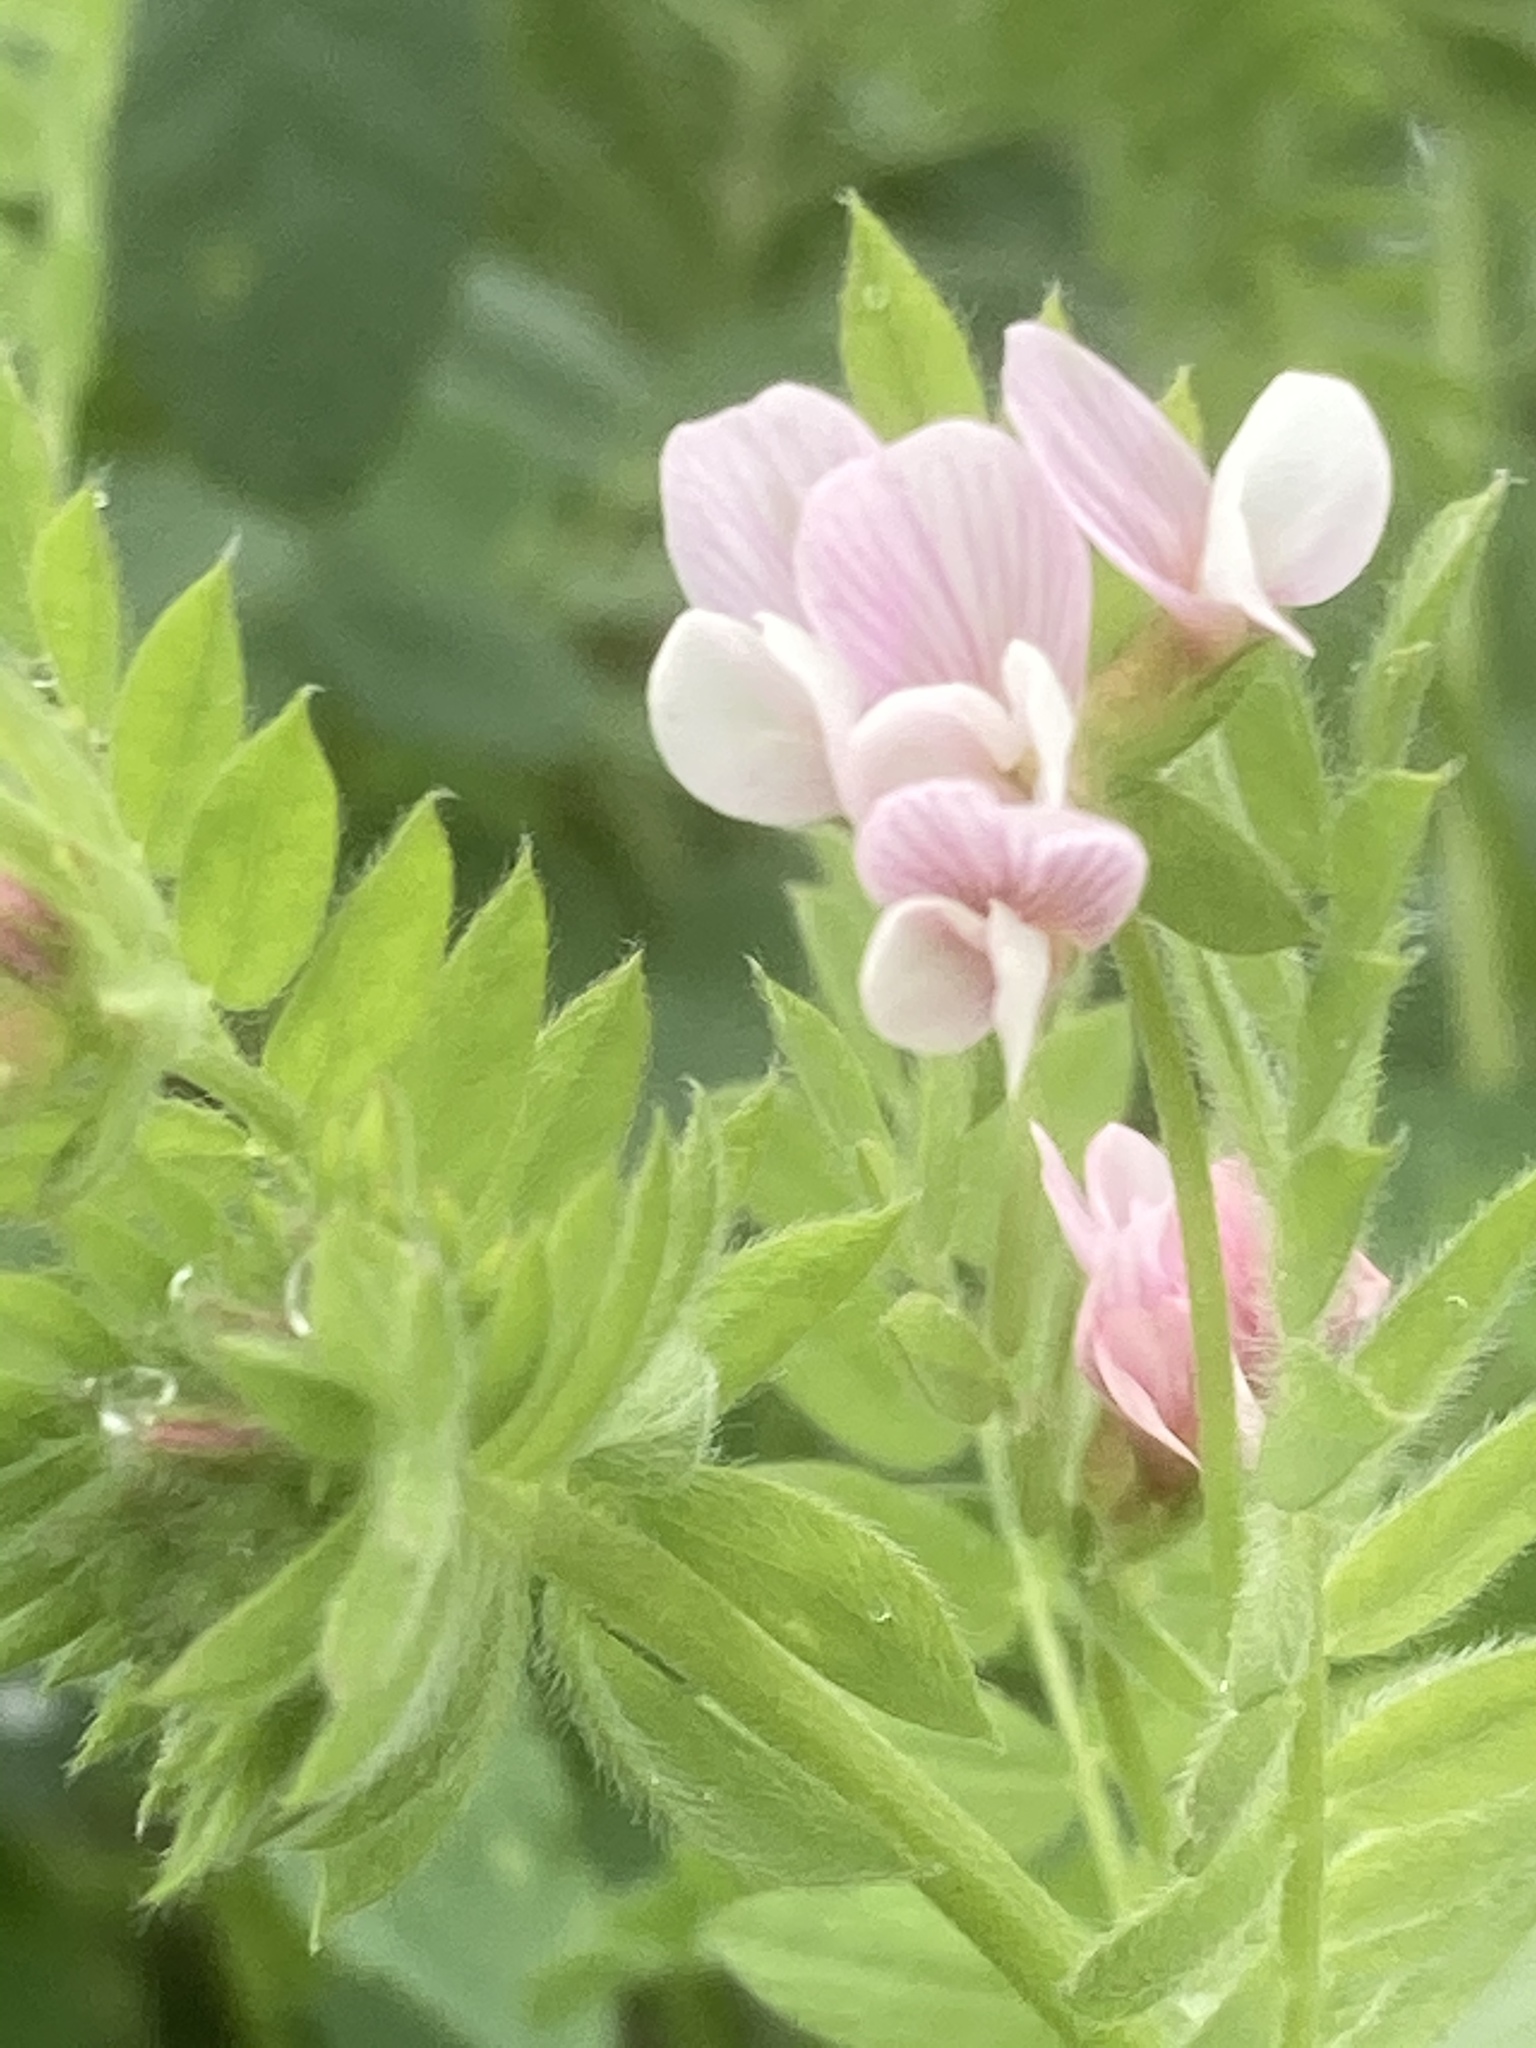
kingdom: Plantae
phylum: Tracheophyta
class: Magnoliopsida
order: Fabales
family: Fabaceae
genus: Ornithopus
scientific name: Ornithopus sativus
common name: Serradella
